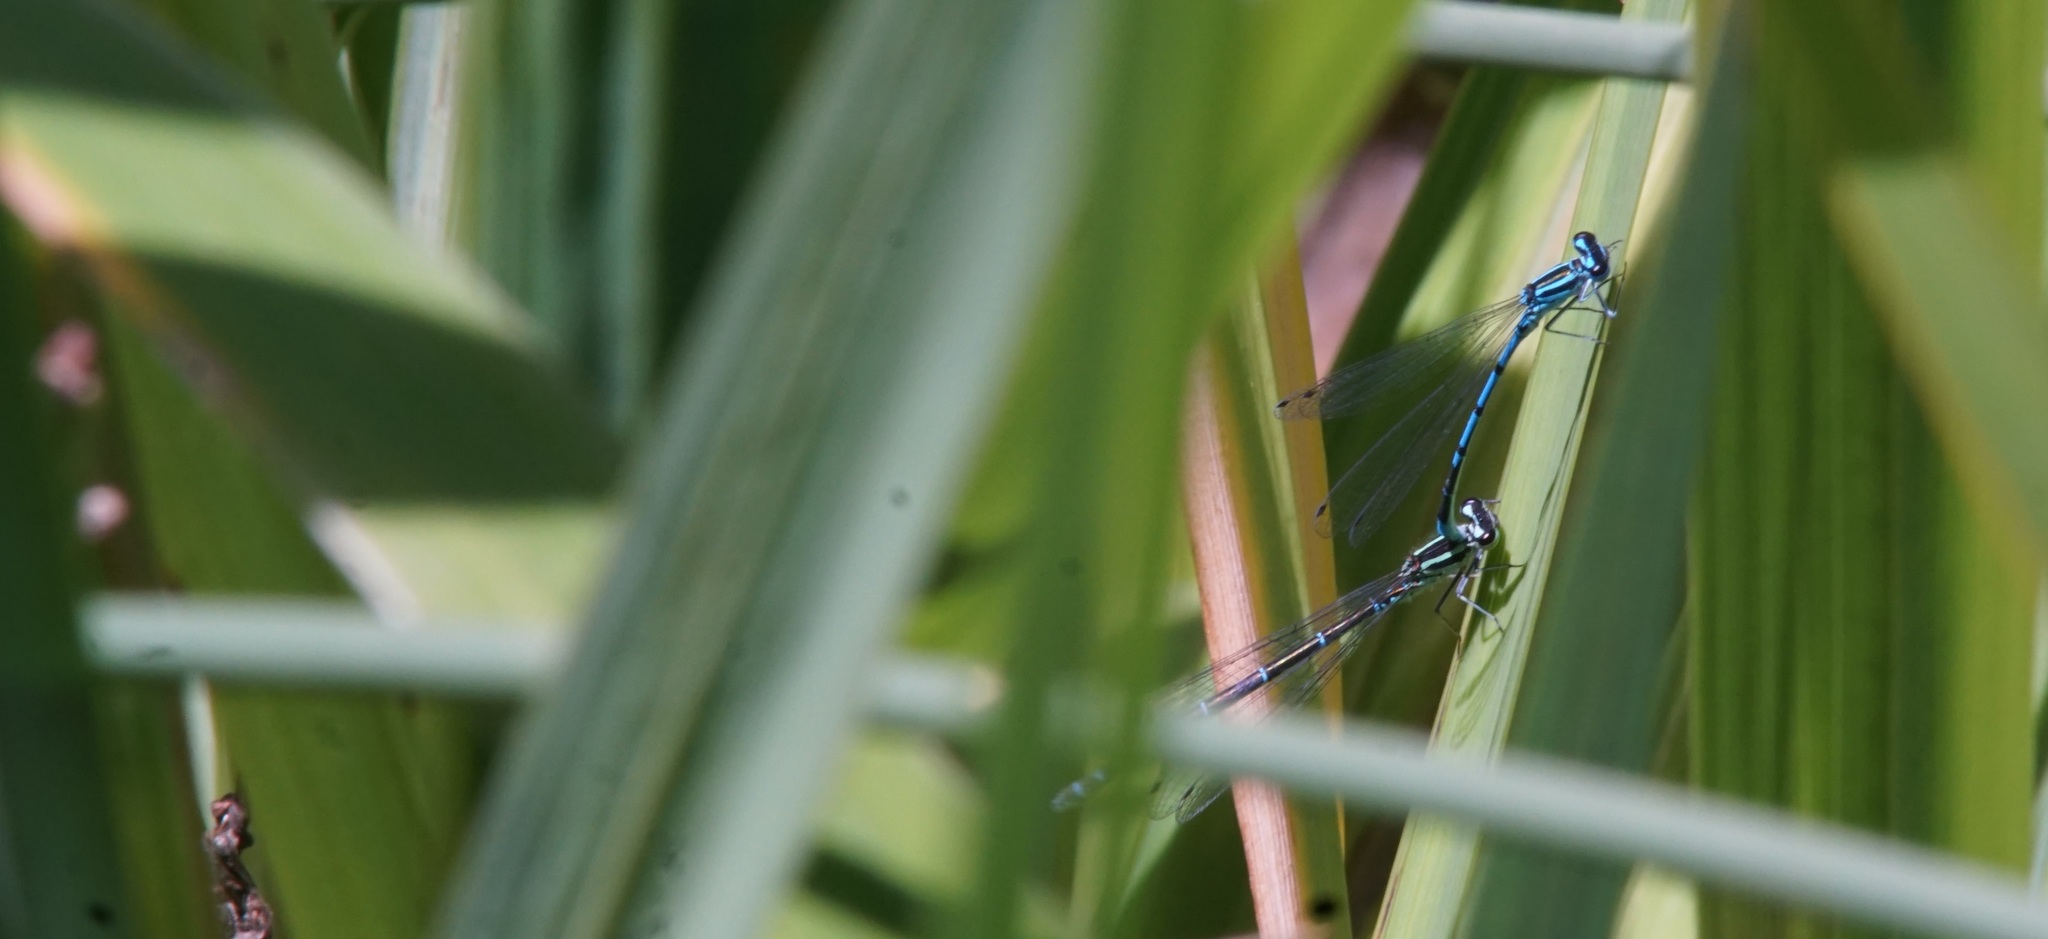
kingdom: Animalia
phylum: Arthropoda
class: Insecta
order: Odonata
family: Coenagrionidae
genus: Coenagrion
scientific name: Coenagrion puella
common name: Azure damselfly
